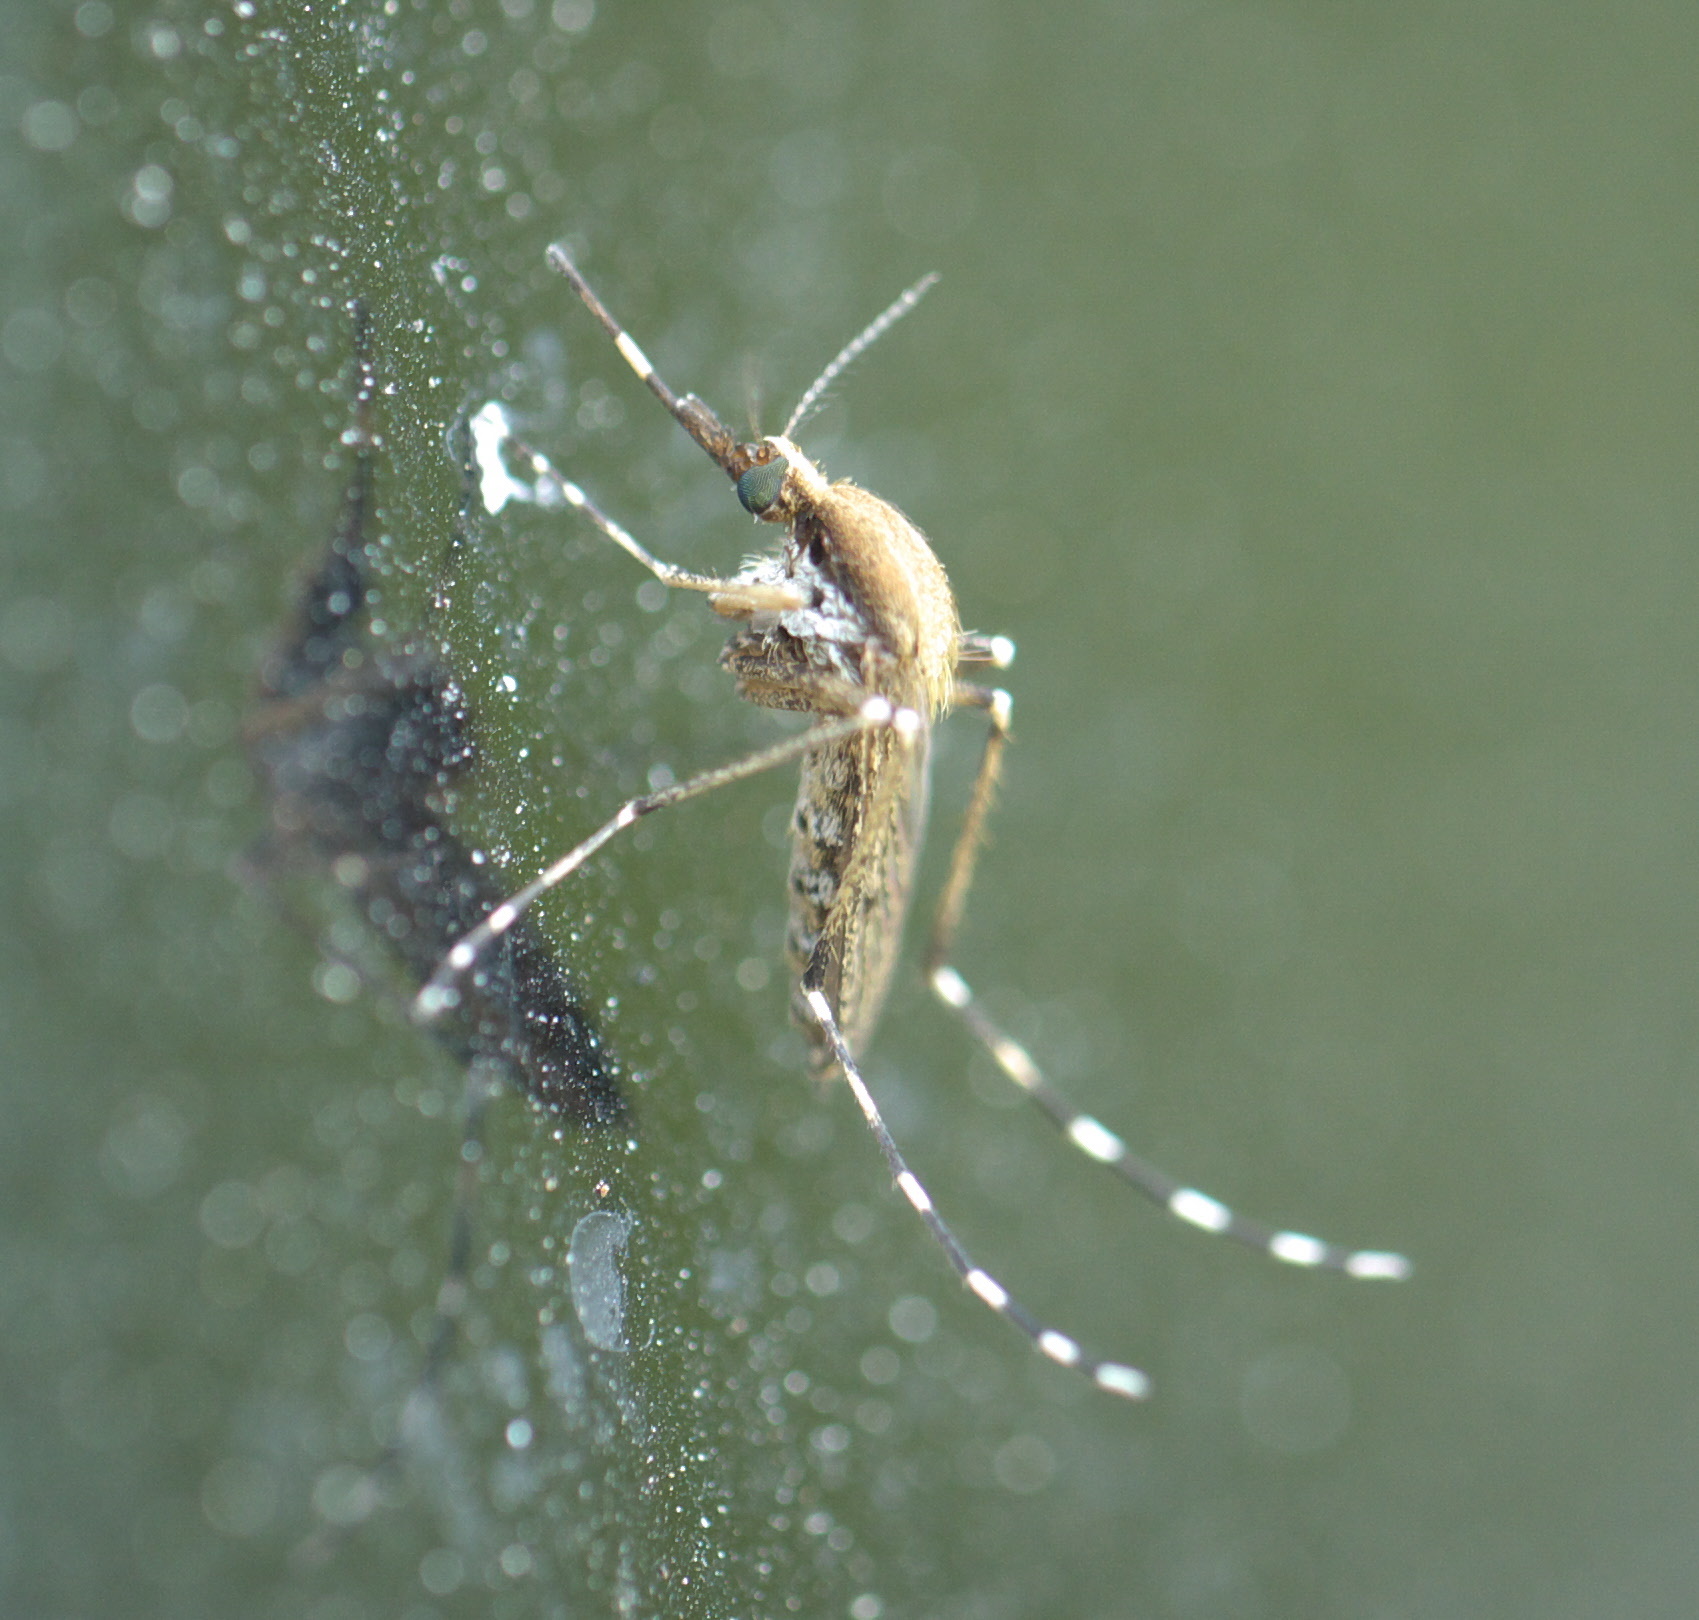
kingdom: Animalia
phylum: Arthropoda
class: Insecta
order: Diptera
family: Culicidae
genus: Aedes
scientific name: Aedes sollicitans
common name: Saltmarsh mosquito
